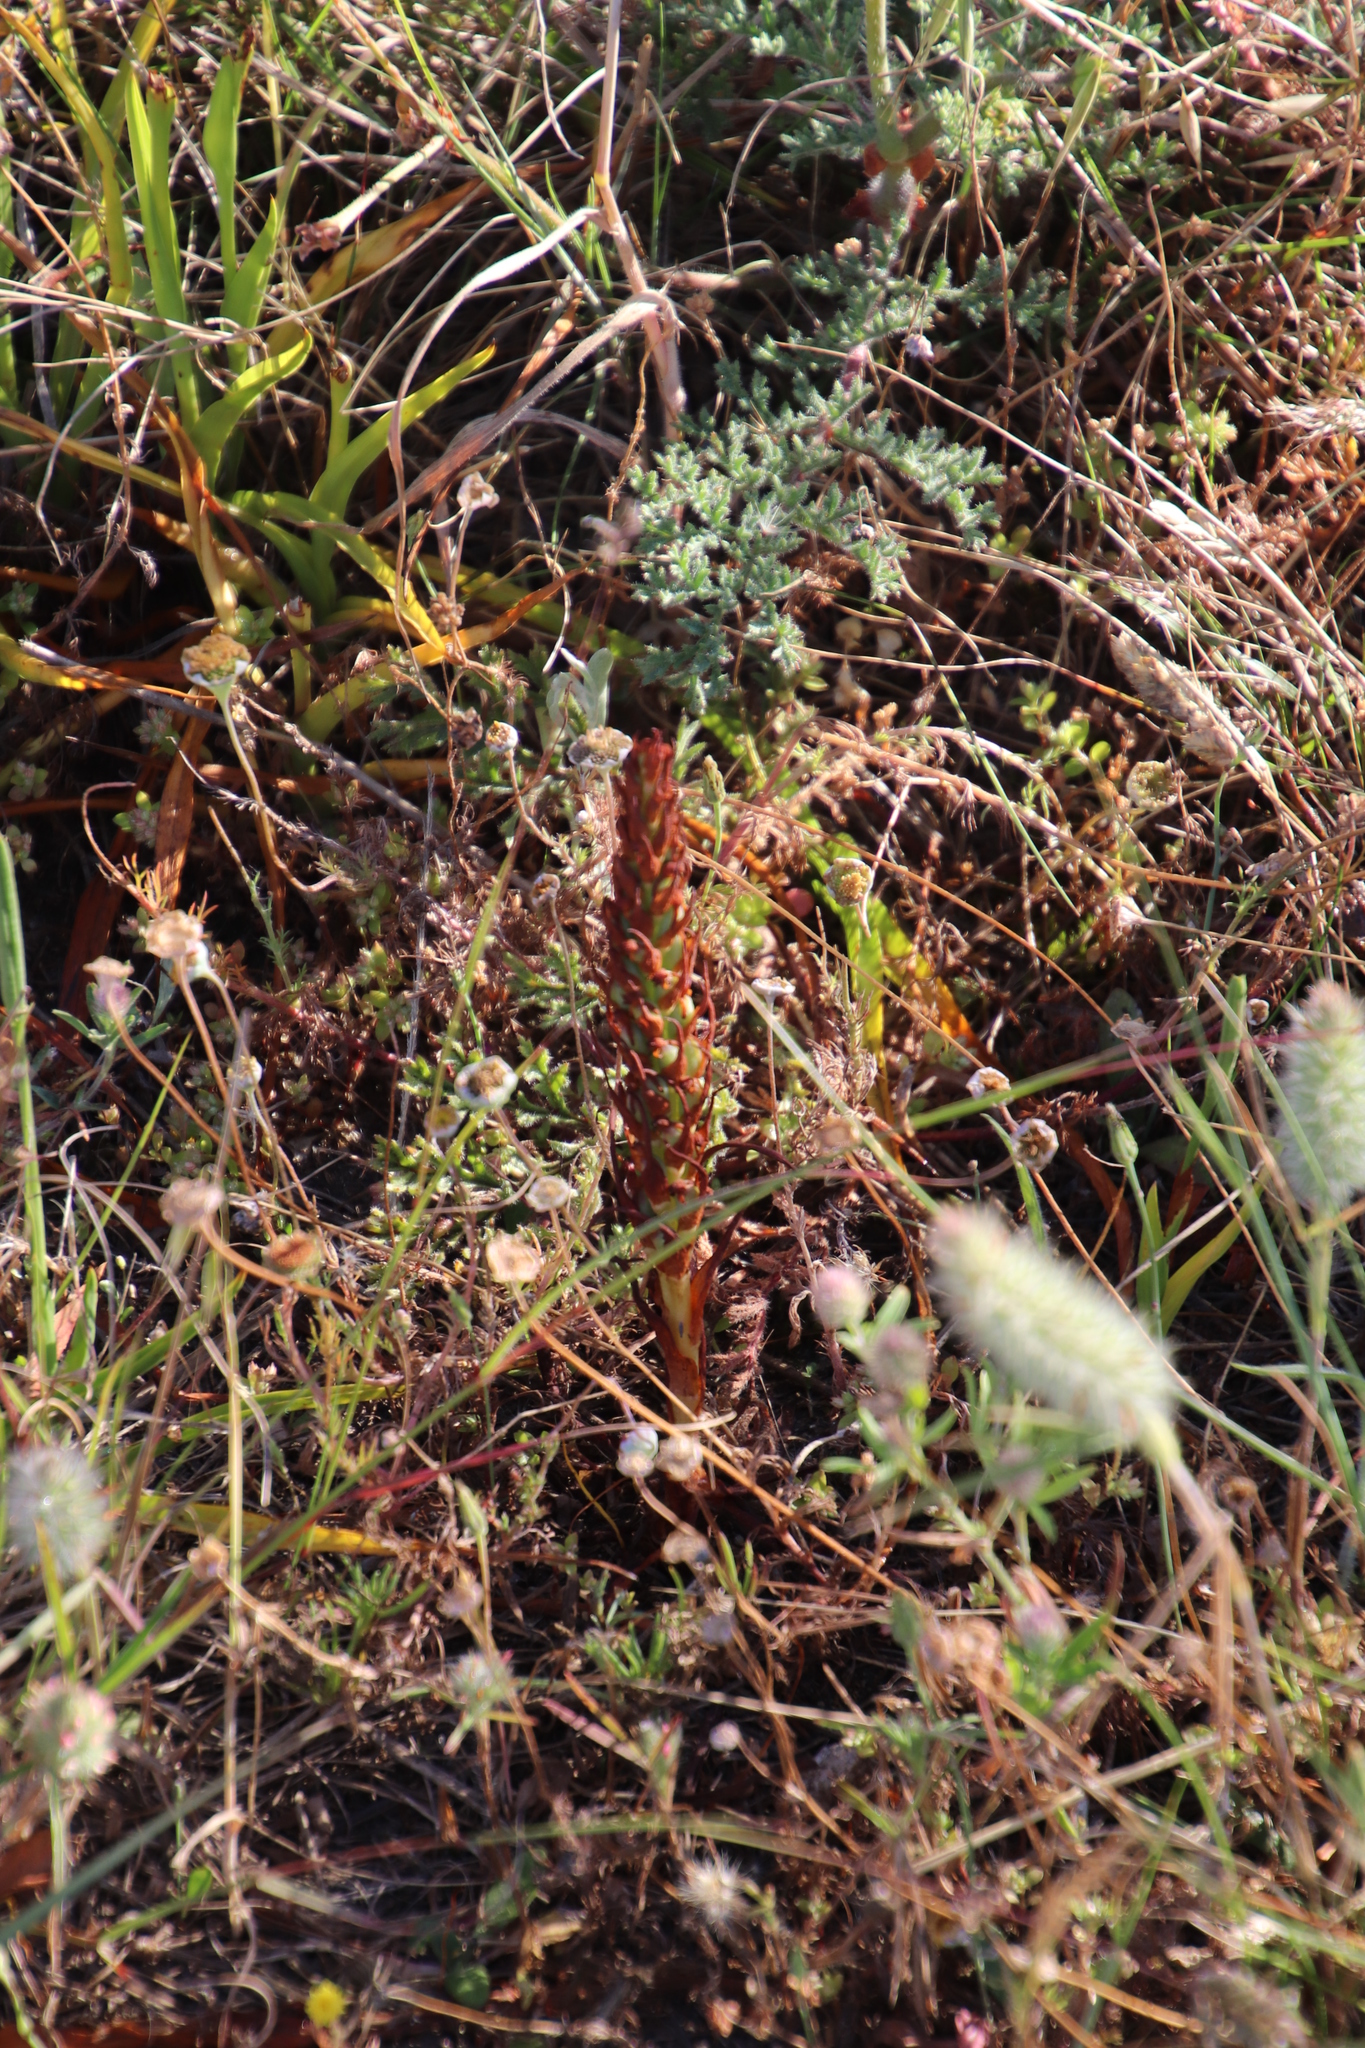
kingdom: Plantae
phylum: Tracheophyta
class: Liliopsida
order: Asparagales
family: Orchidaceae
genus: Disa
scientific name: Disa bracteata
